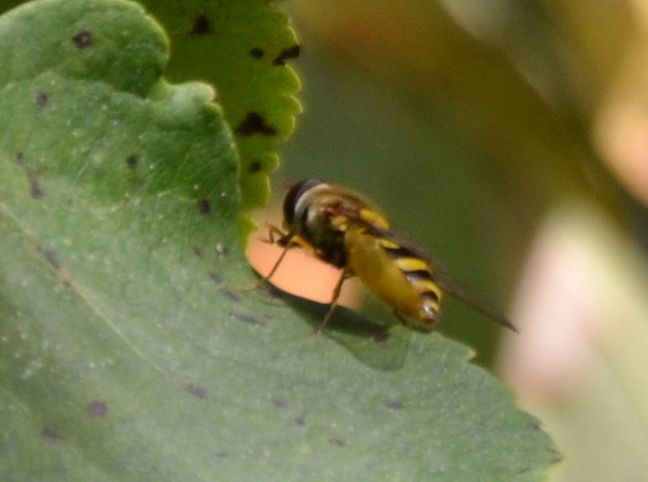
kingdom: Animalia
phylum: Arthropoda
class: Insecta
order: Diptera
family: Syrphidae
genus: Syrphus
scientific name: Syrphus
